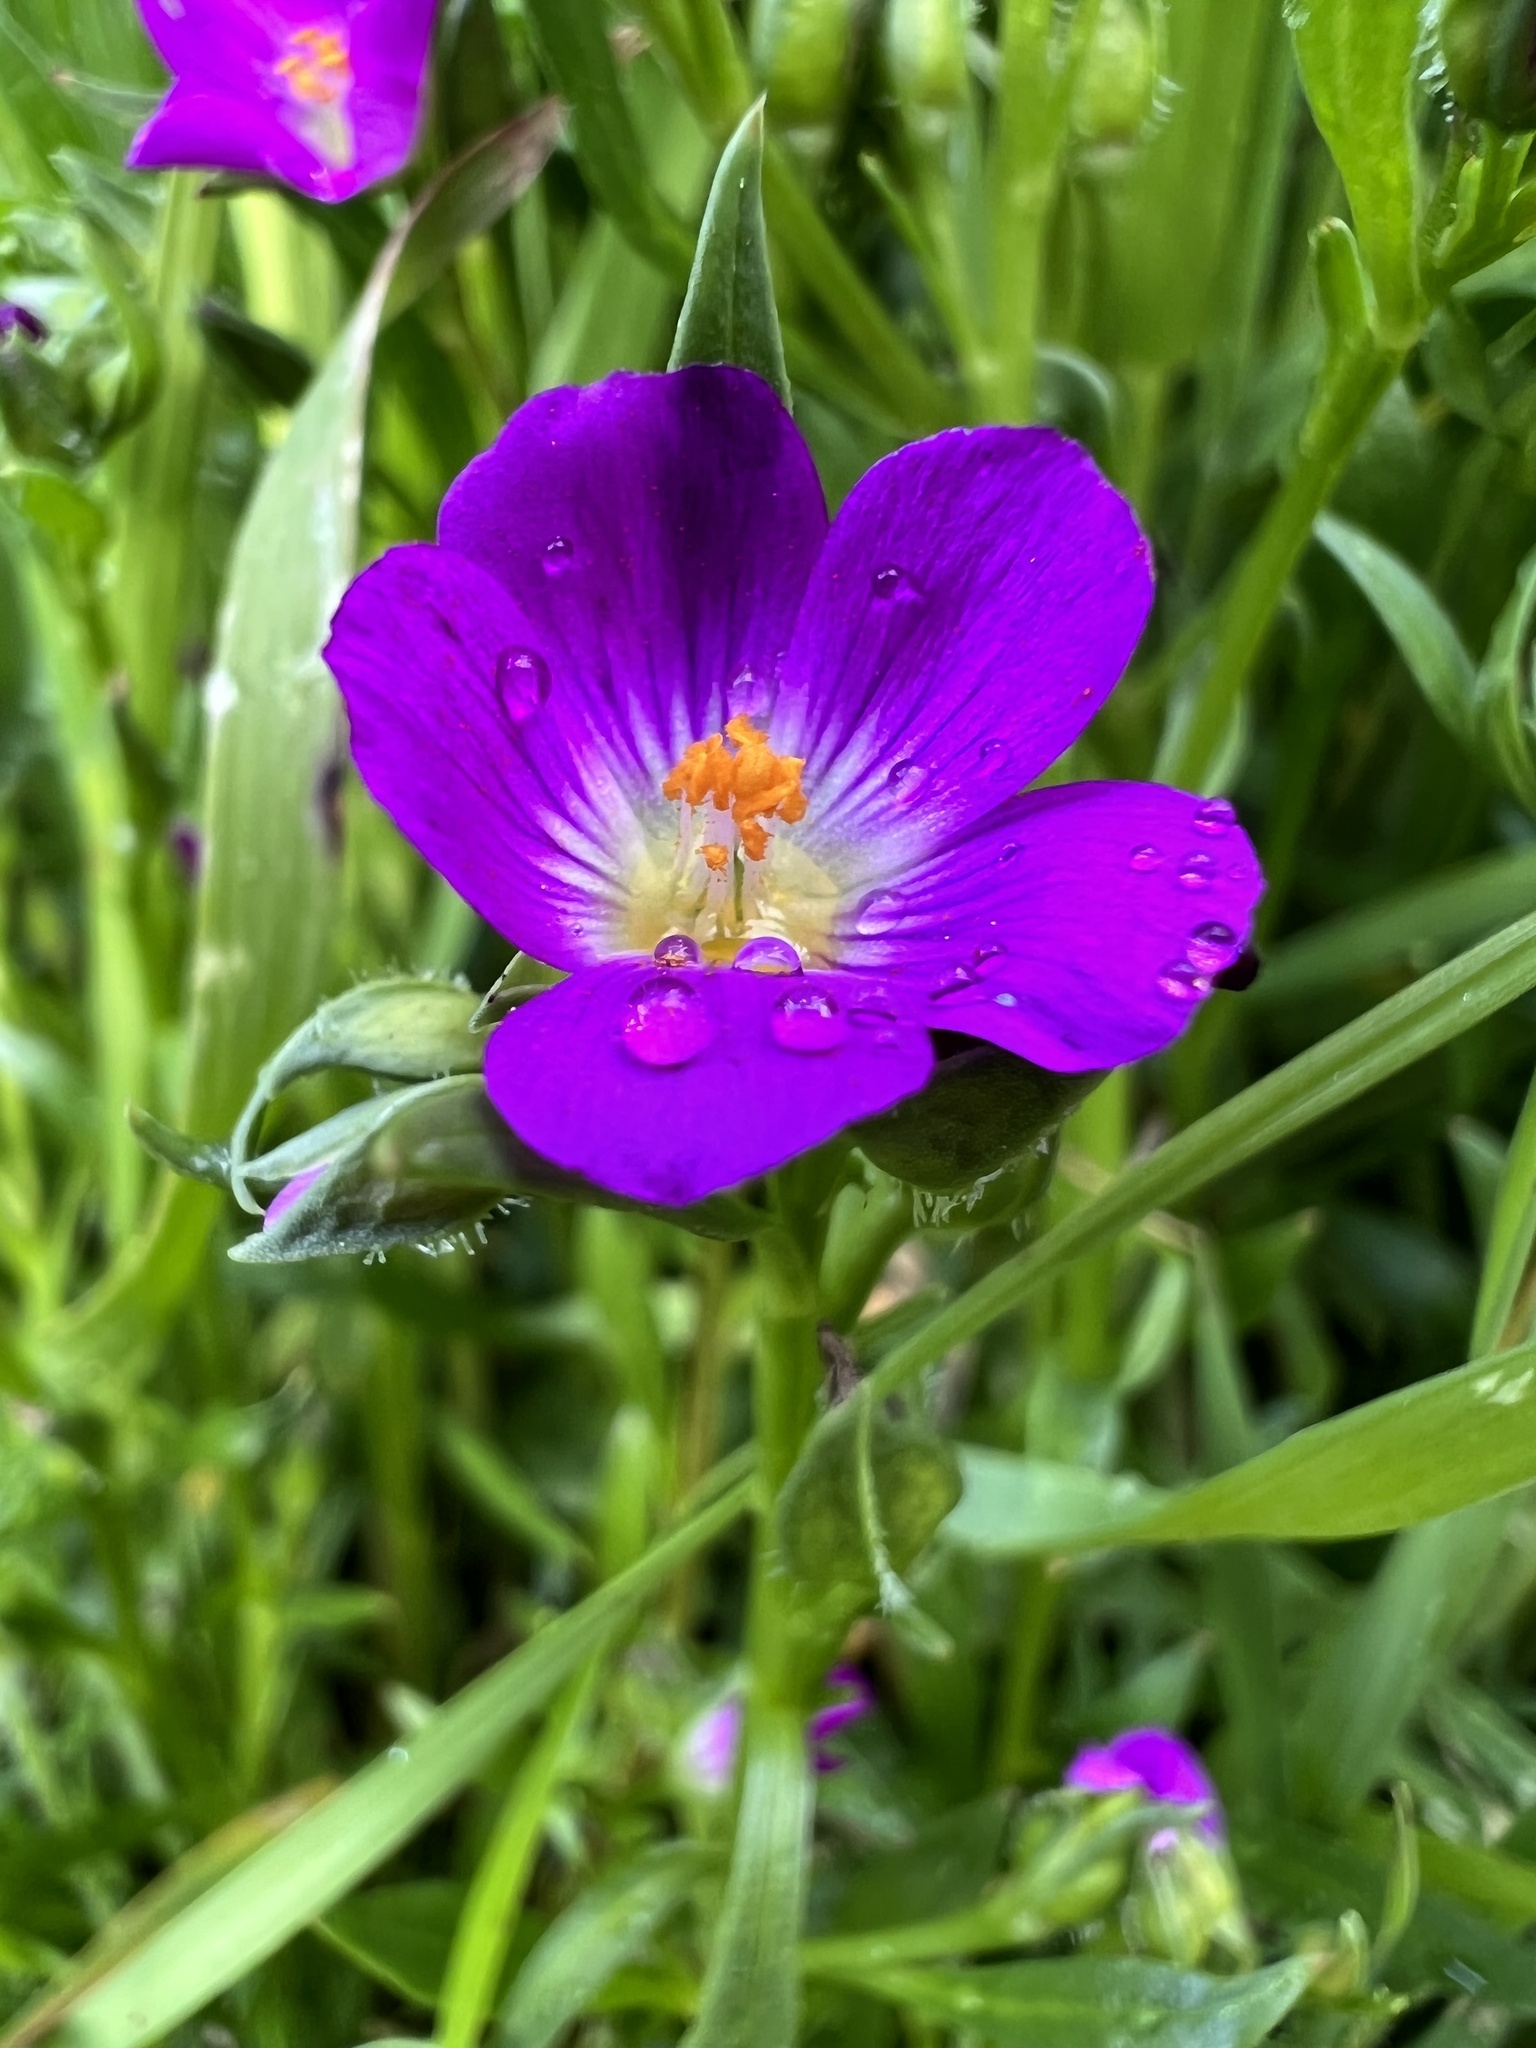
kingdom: Plantae
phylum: Tracheophyta
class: Magnoliopsida
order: Caryophyllales
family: Montiaceae
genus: Calandrinia
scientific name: Calandrinia menziesii
